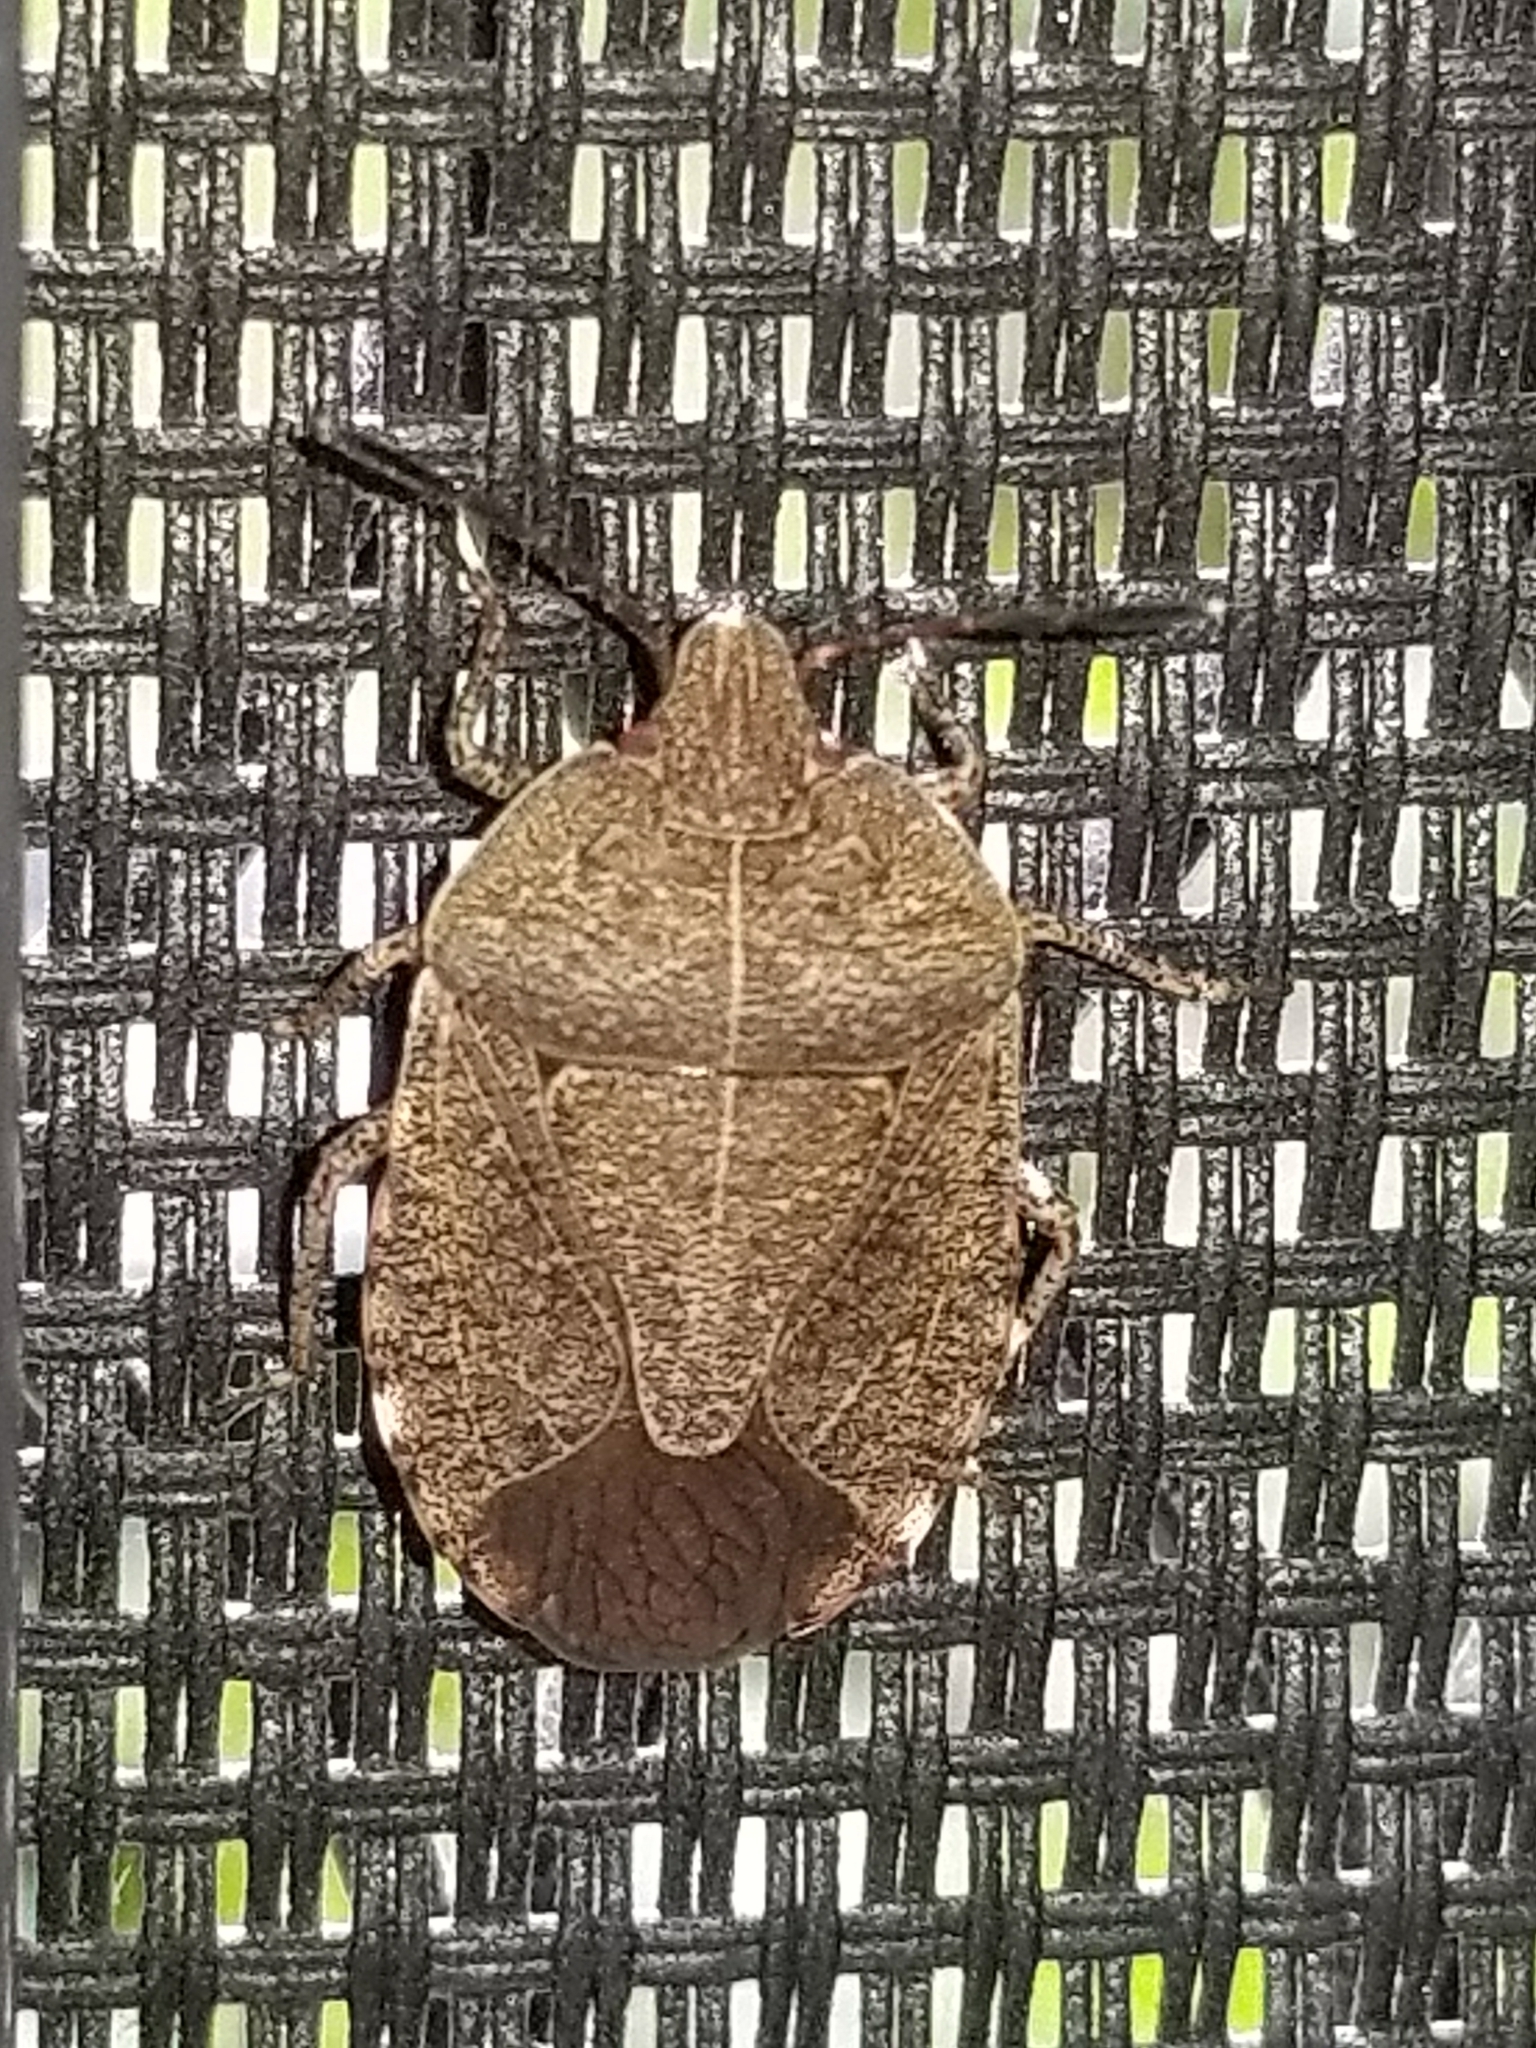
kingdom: Animalia
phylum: Arthropoda
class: Insecta
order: Hemiptera
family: Pentatomidae
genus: Menecles
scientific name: Menecles insertus
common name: Elf shoe stink bug
